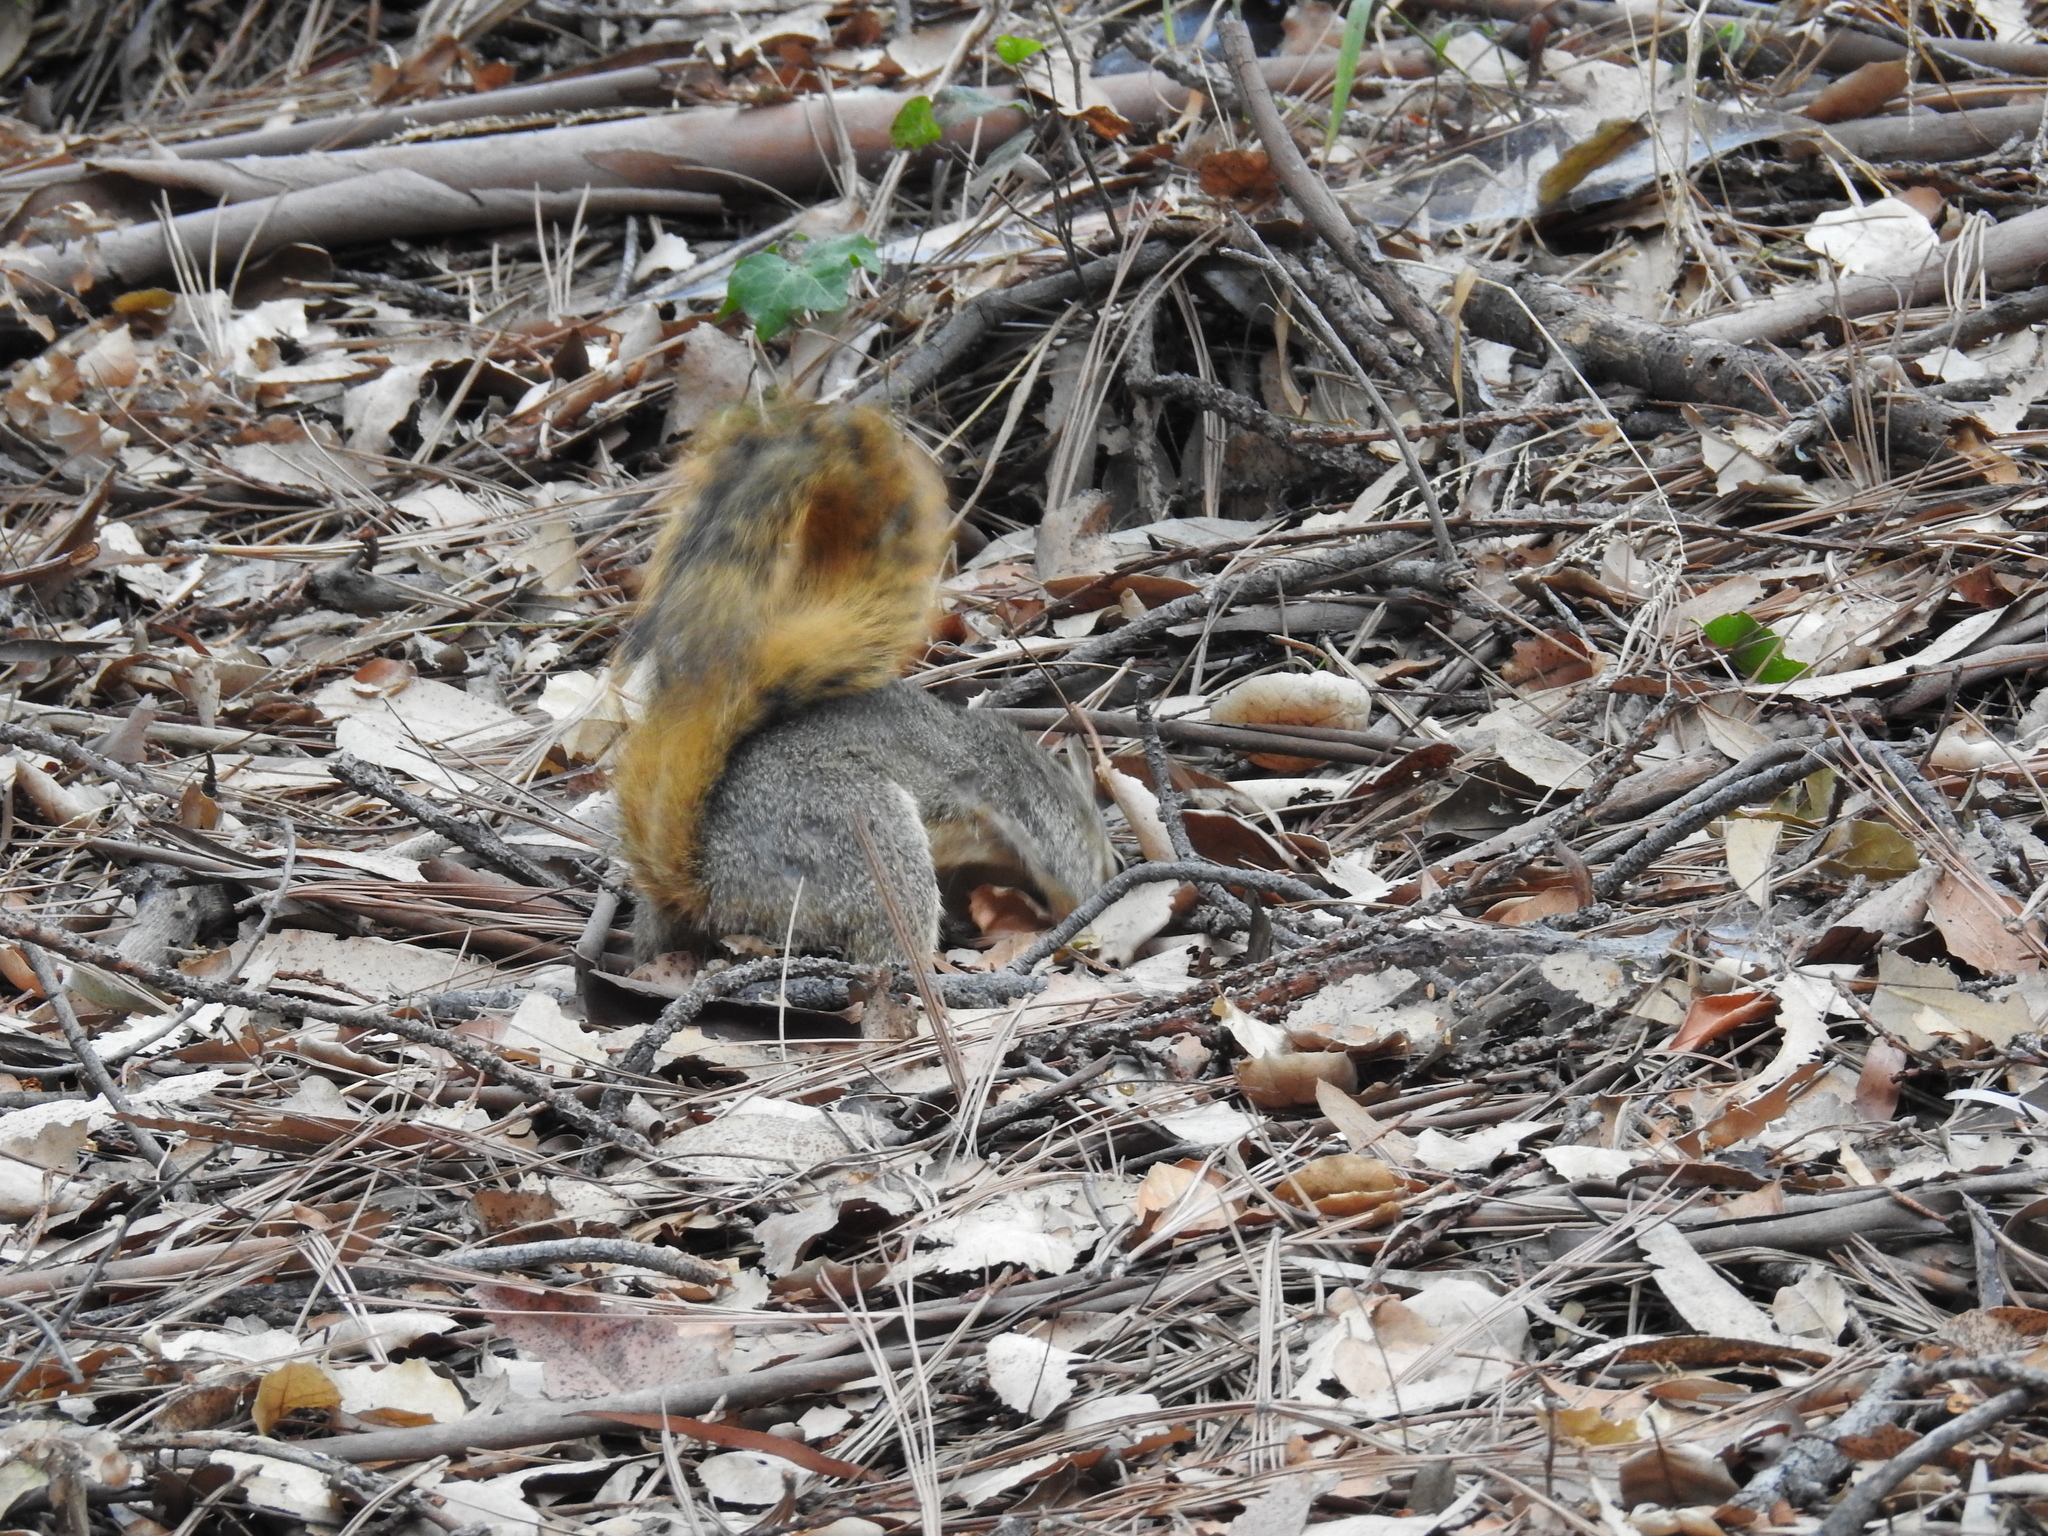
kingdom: Animalia
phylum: Chordata
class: Mammalia
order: Rodentia
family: Sciuridae
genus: Sciurus
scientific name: Sciurus niger
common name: Fox squirrel
